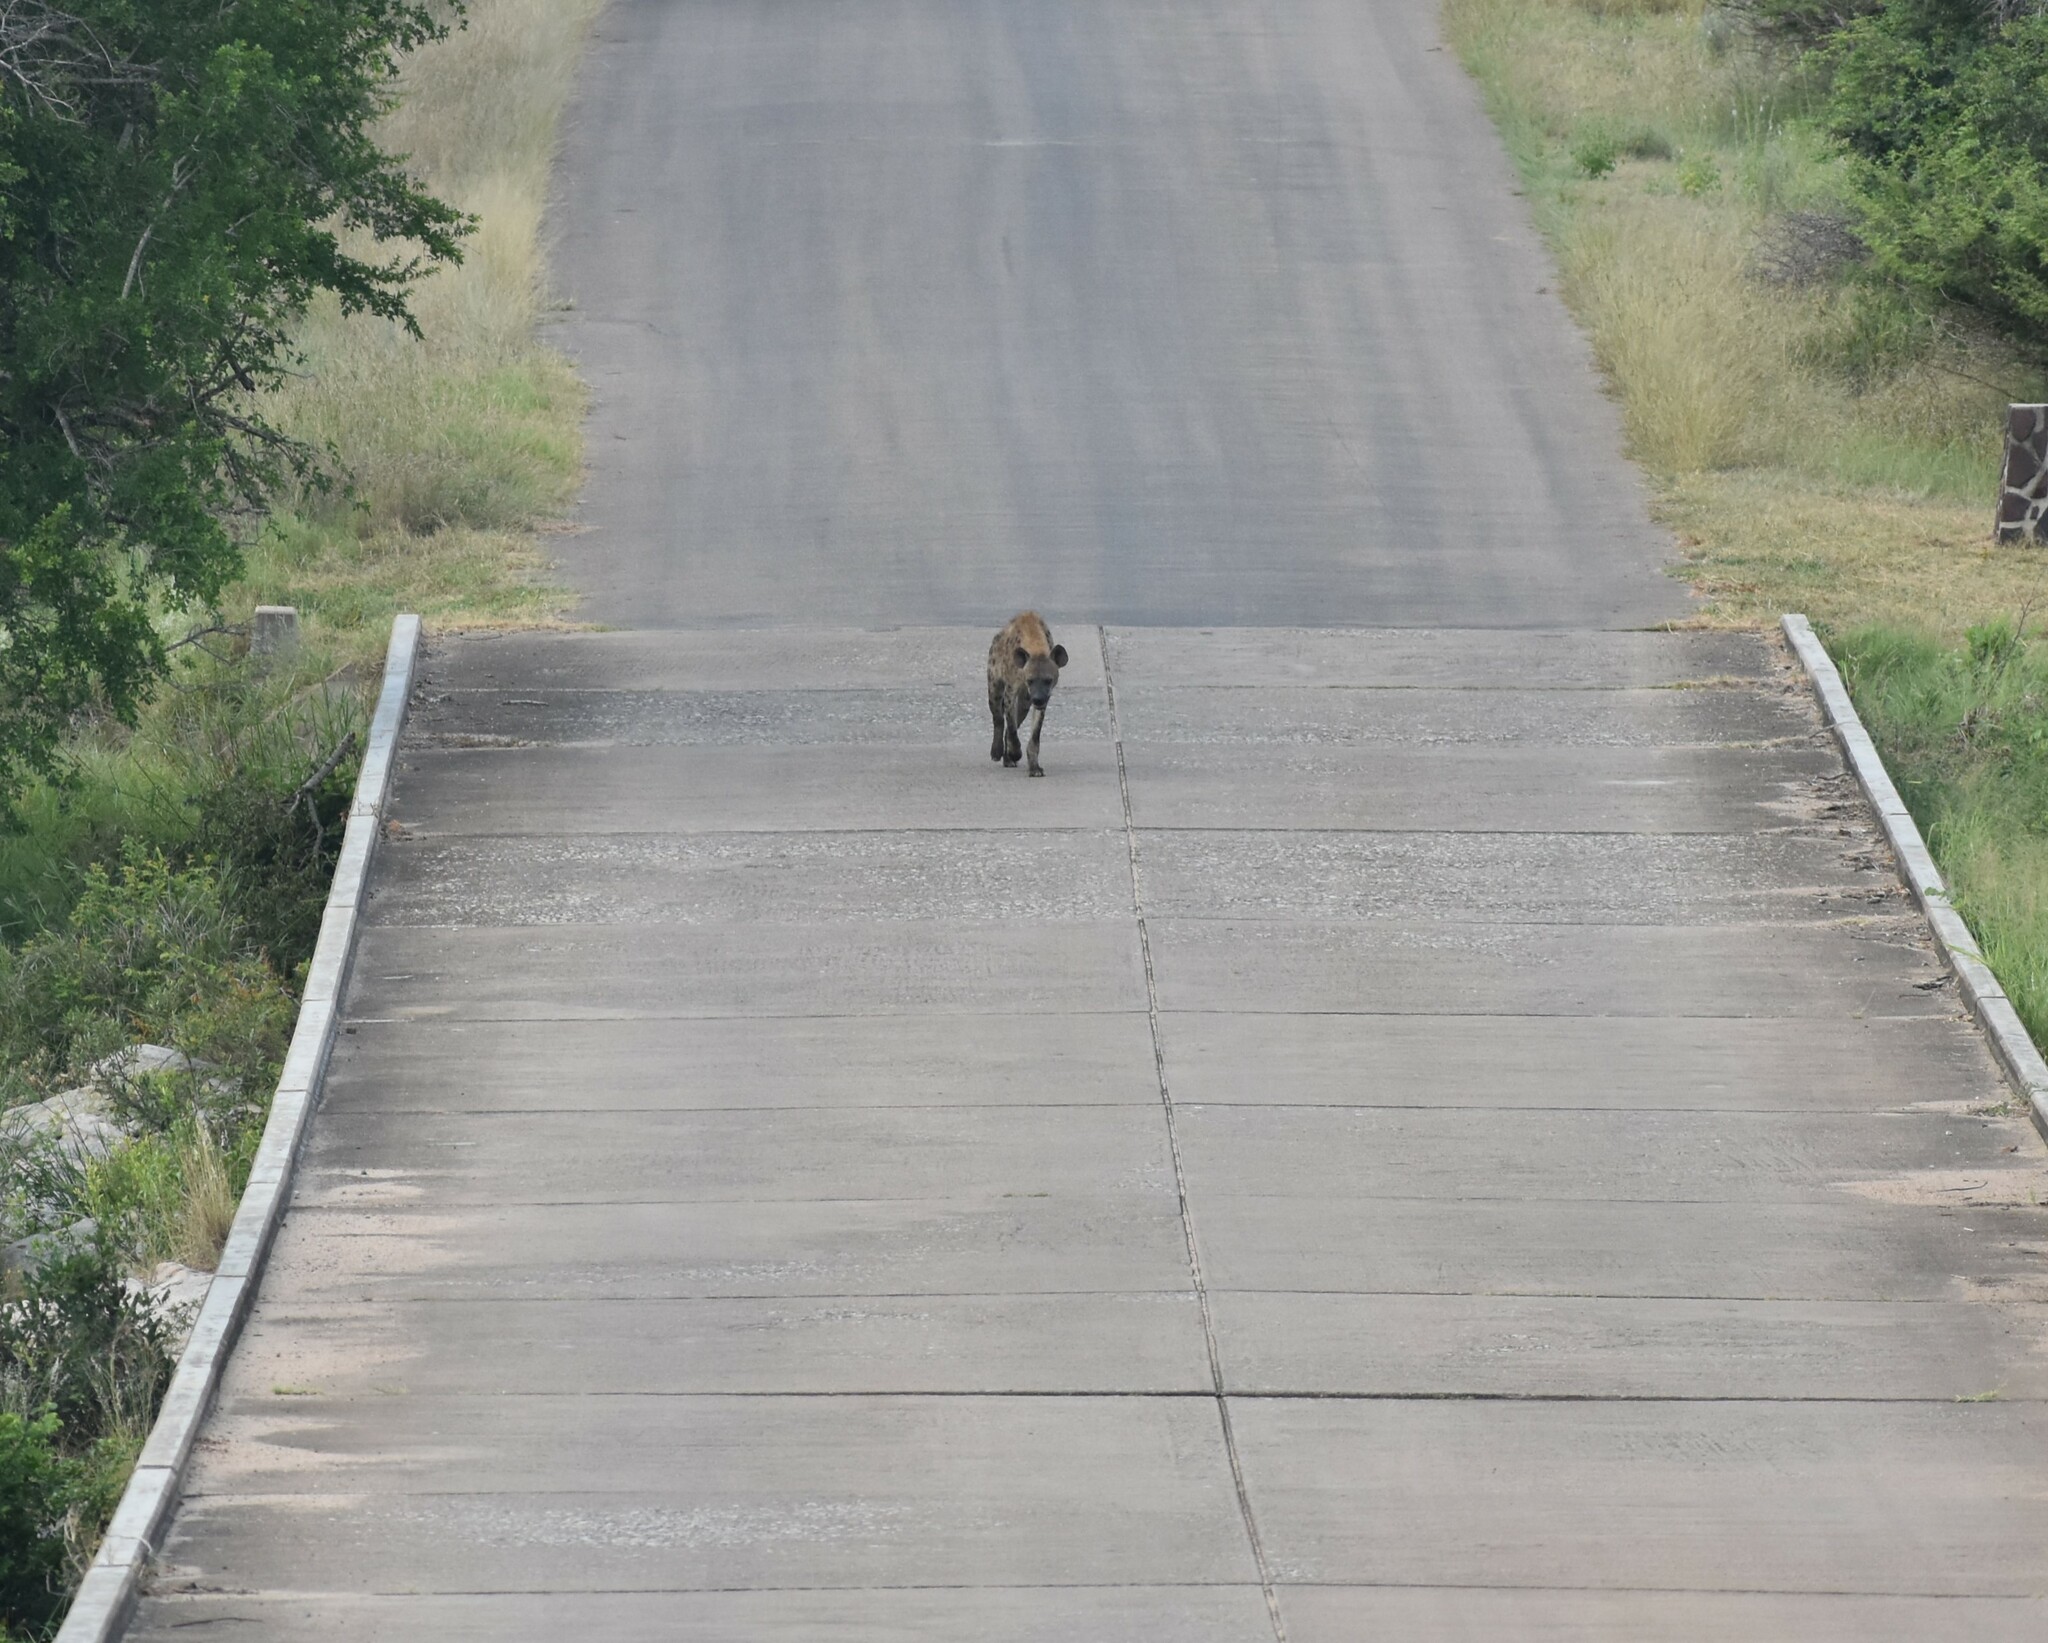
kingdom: Animalia
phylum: Chordata
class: Mammalia
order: Carnivora
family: Hyaenidae
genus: Crocuta
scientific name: Crocuta crocuta
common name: Spotted hyaena
